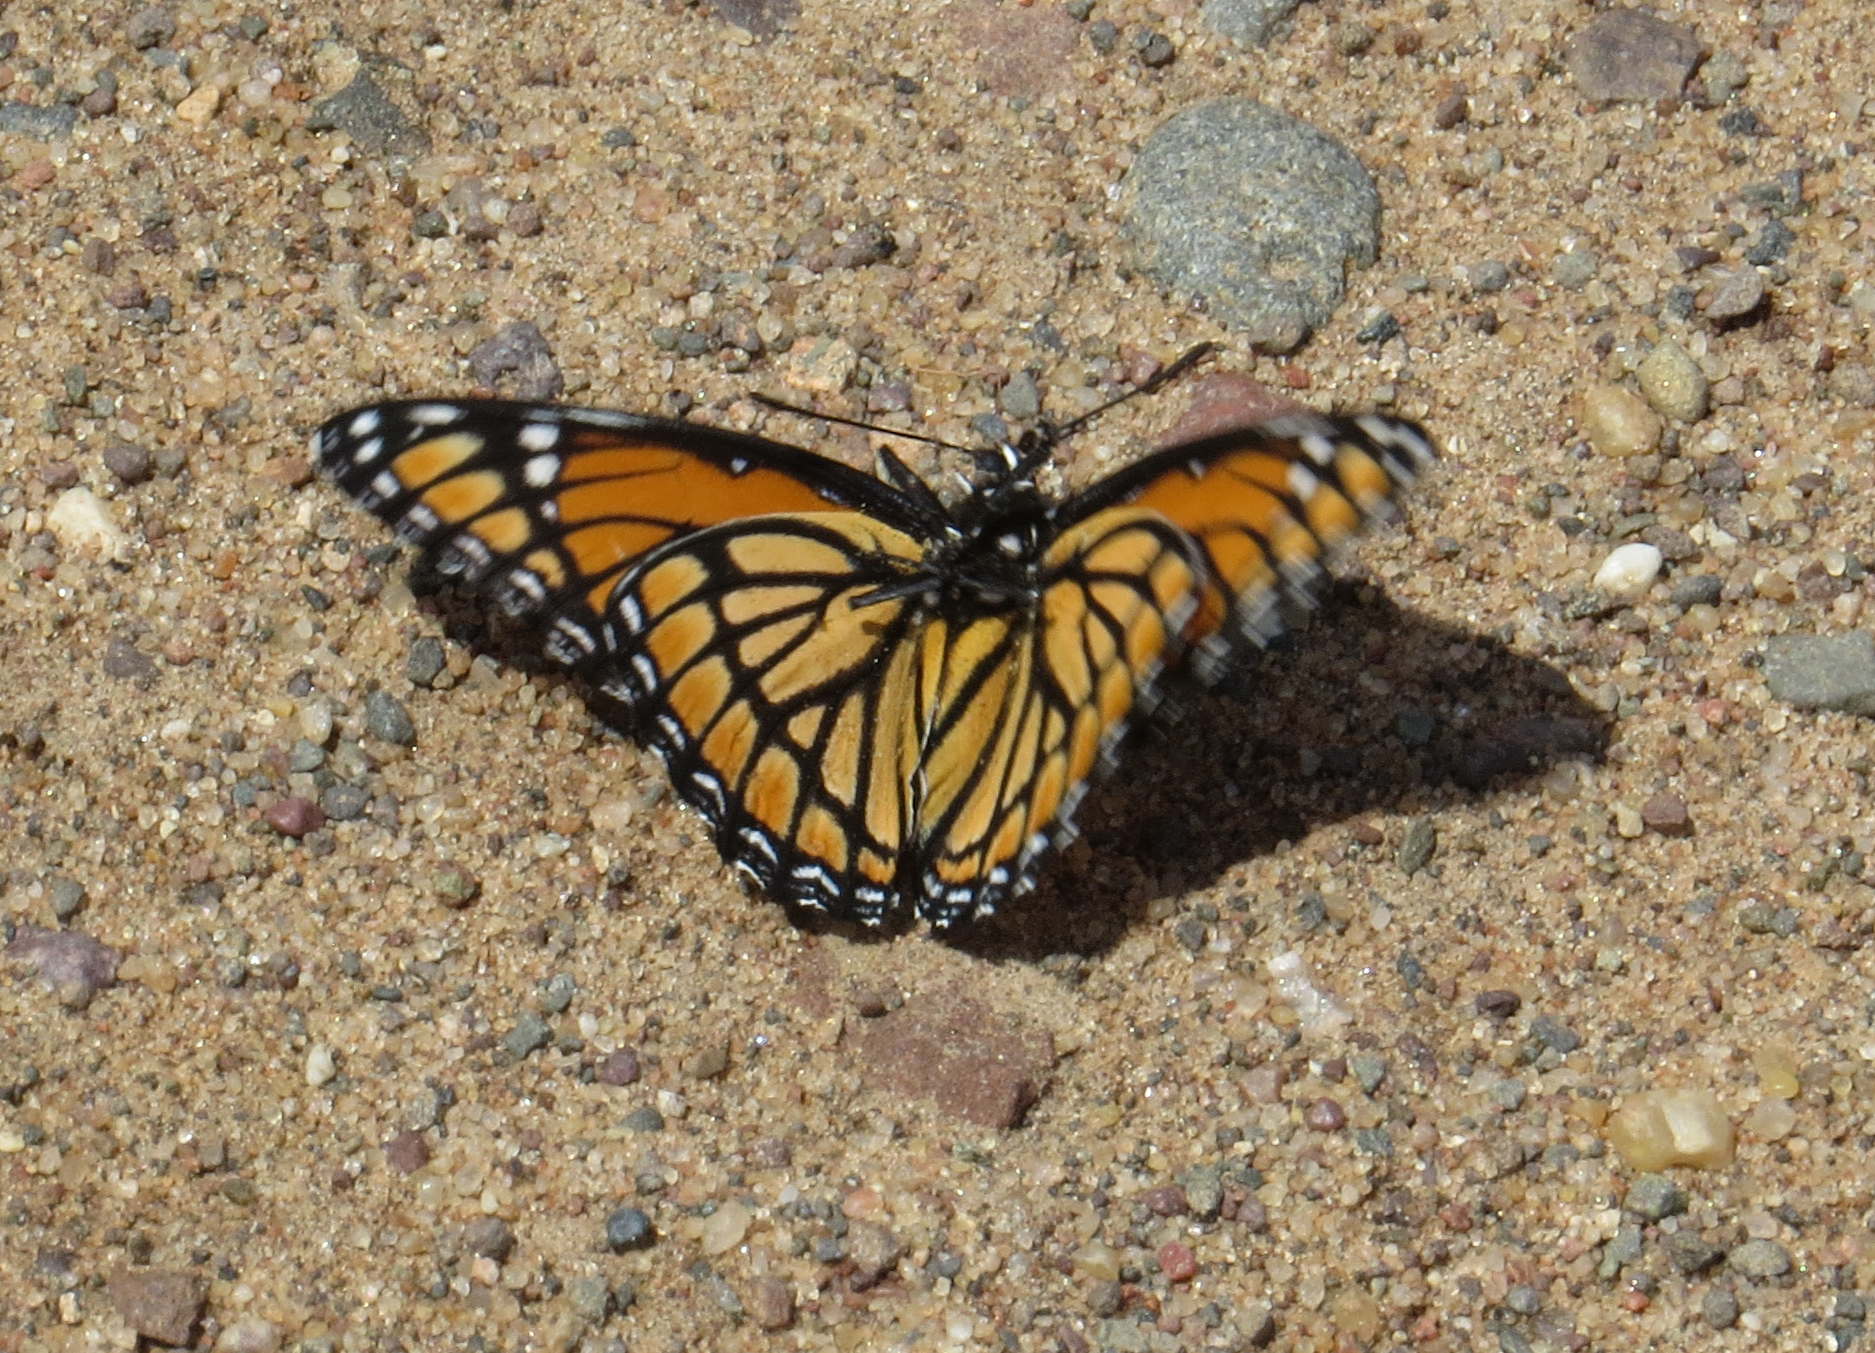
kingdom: Animalia
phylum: Arthropoda
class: Insecta
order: Lepidoptera
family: Nymphalidae
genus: Limenitis
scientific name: Limenitis archippus
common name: Viceroy
